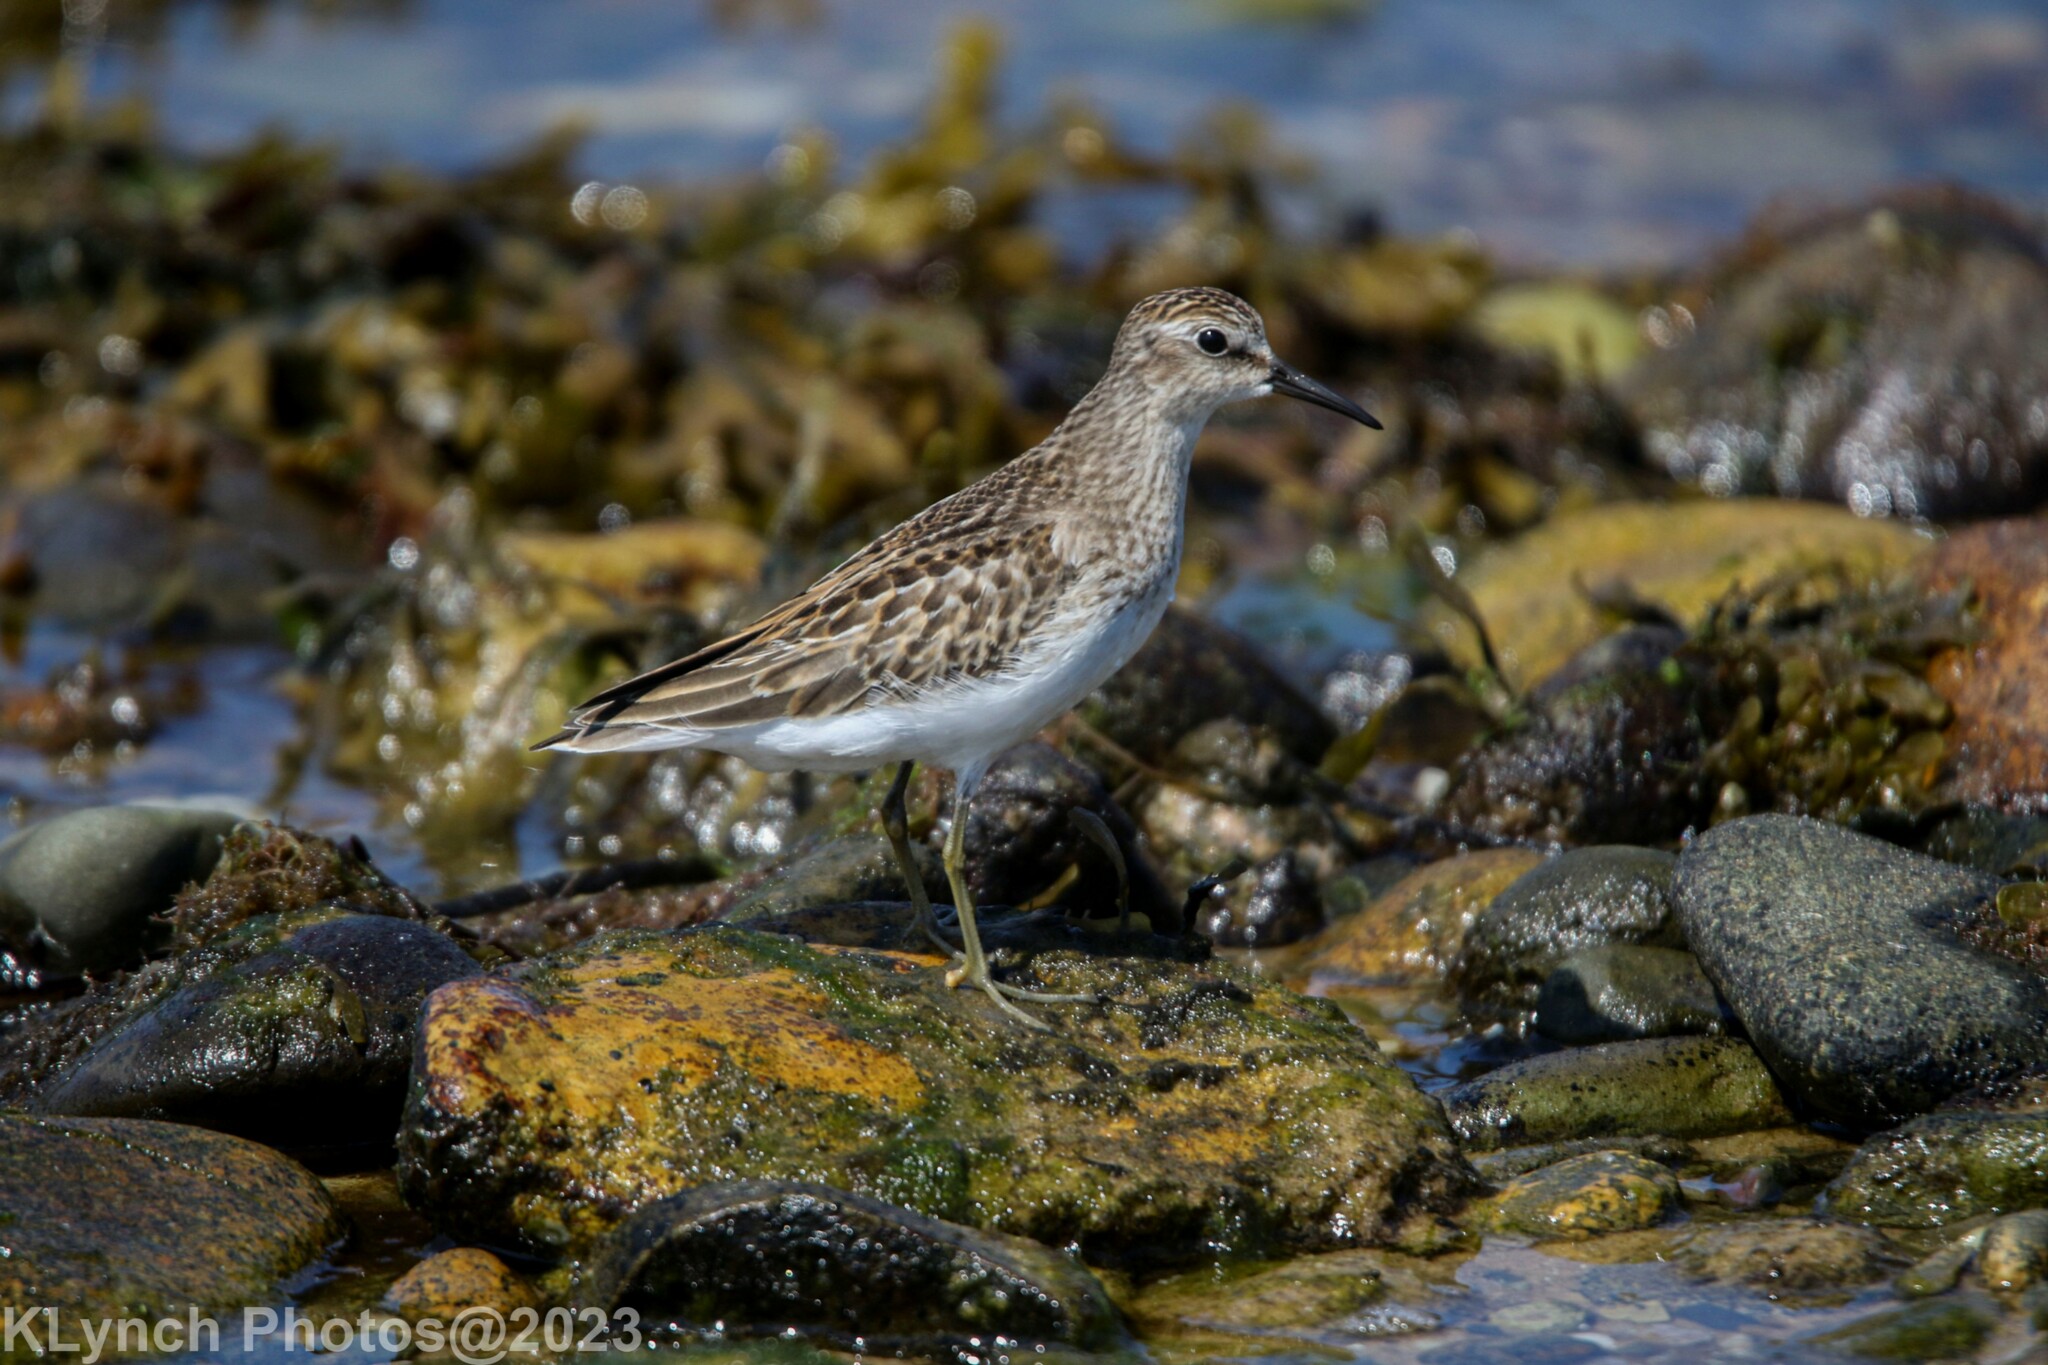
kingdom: Animalia
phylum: Chordata
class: Aves
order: Charadriiformes
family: Scolopacidae
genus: Calidris
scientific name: Calidris minutilla
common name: Least sandpiper
